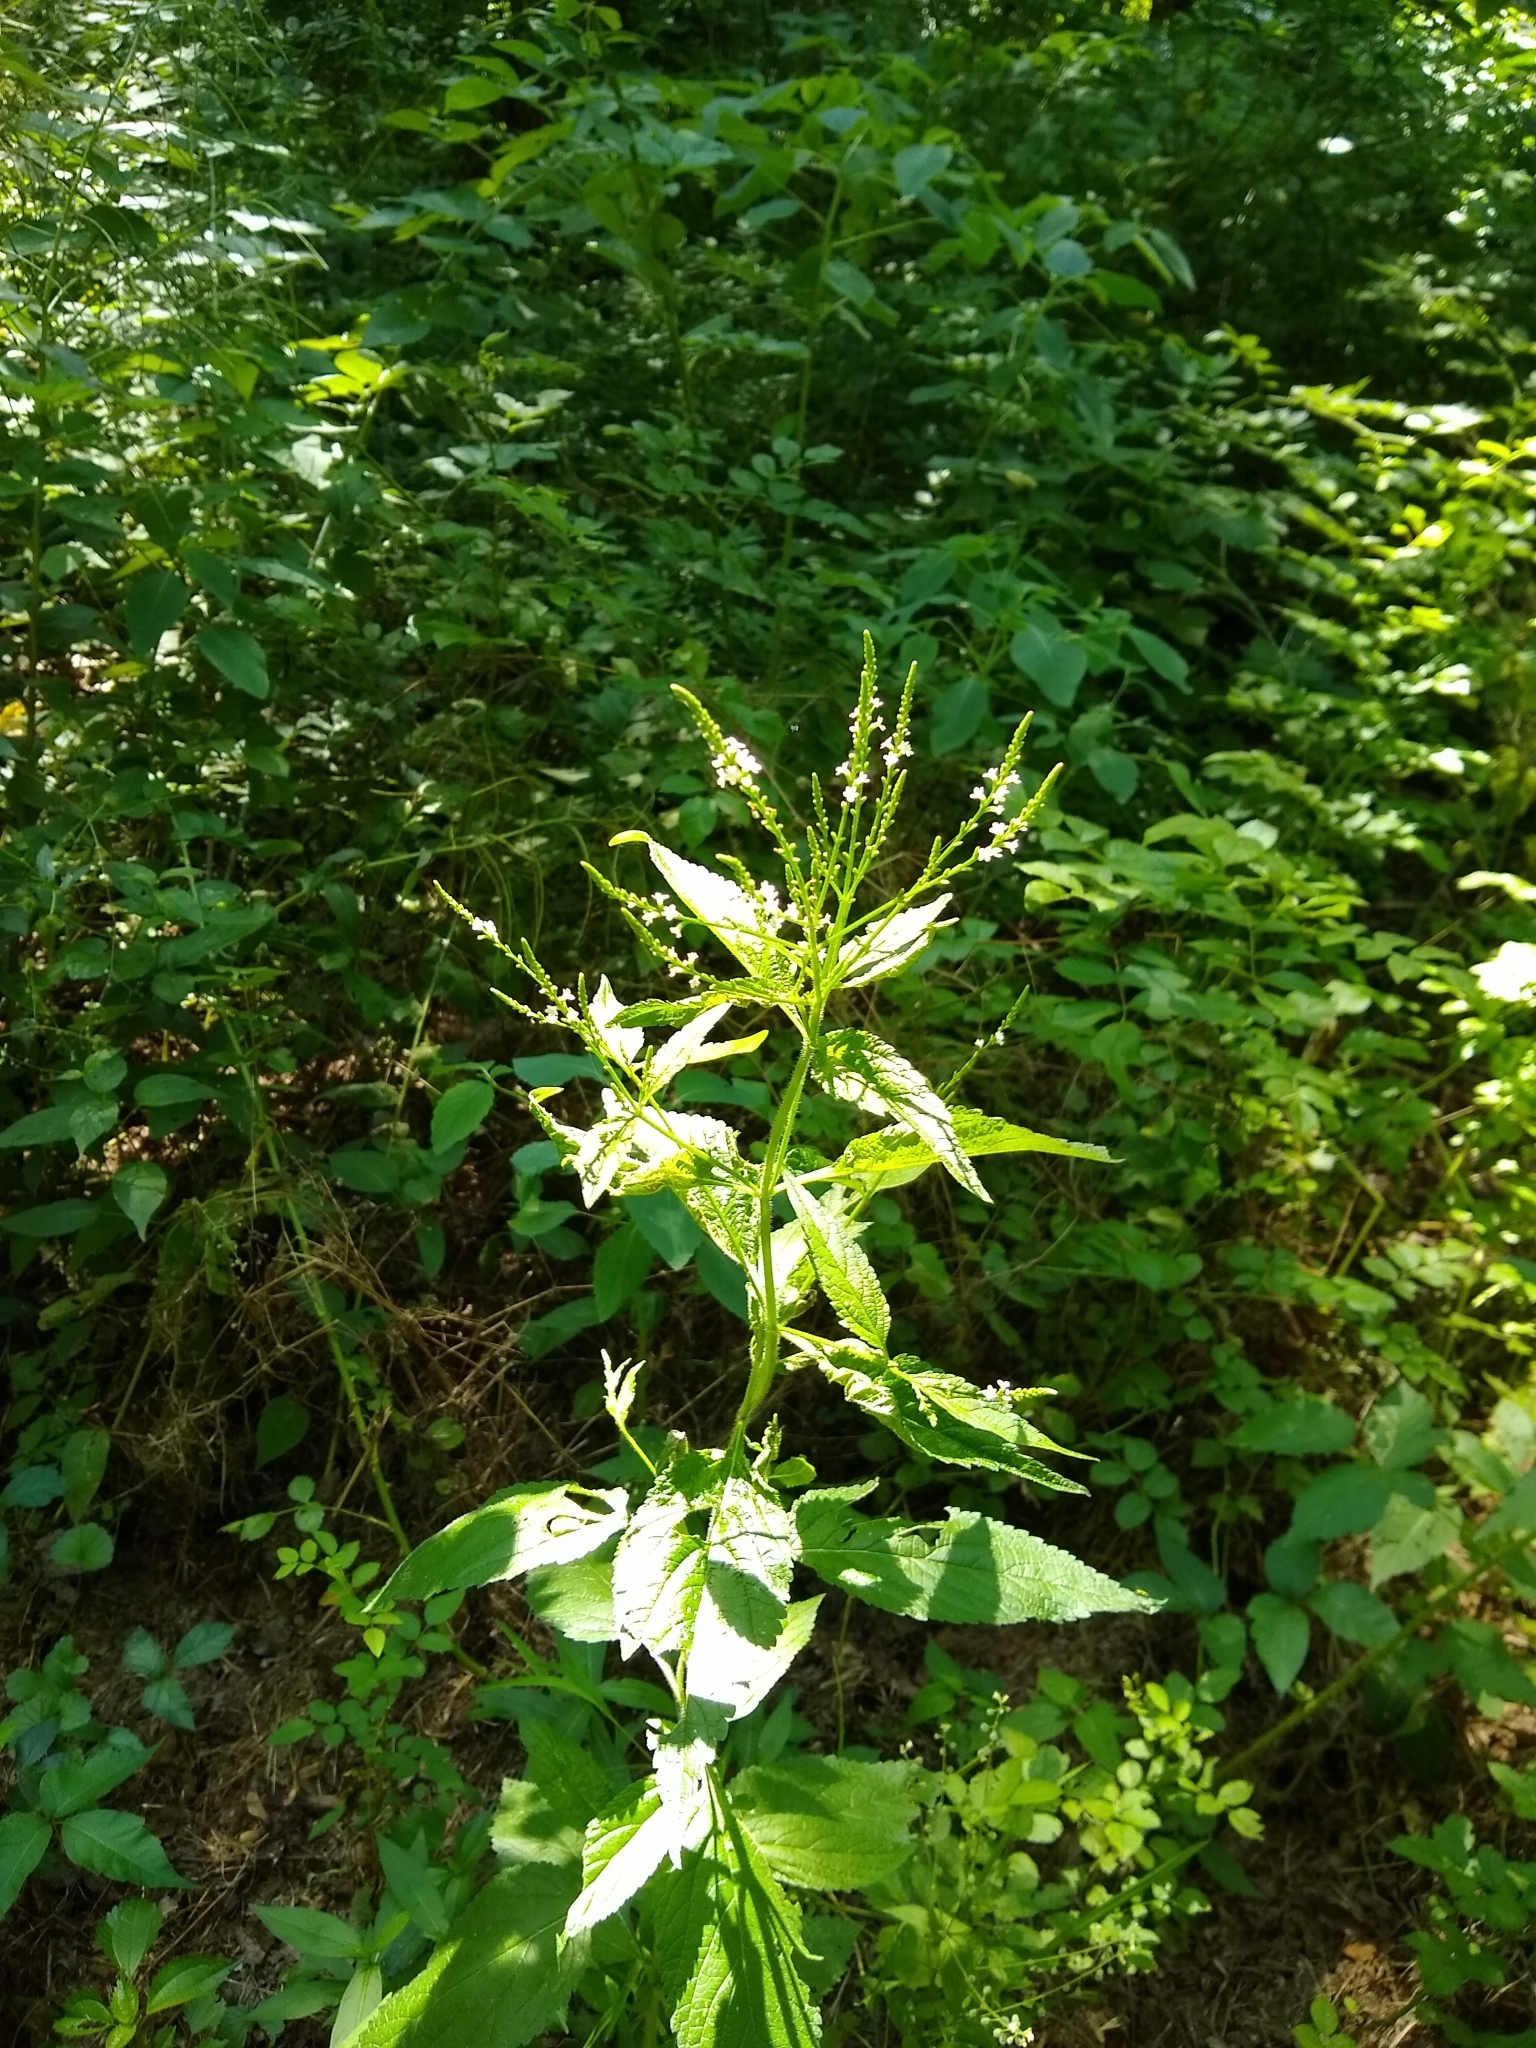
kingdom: Plantae
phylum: Tracheophyta
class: Magnoliopsida
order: Lamiales
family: Verbenaceae
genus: Verbena
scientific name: Verbena urticifolia
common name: Nettle-leaved vervain
